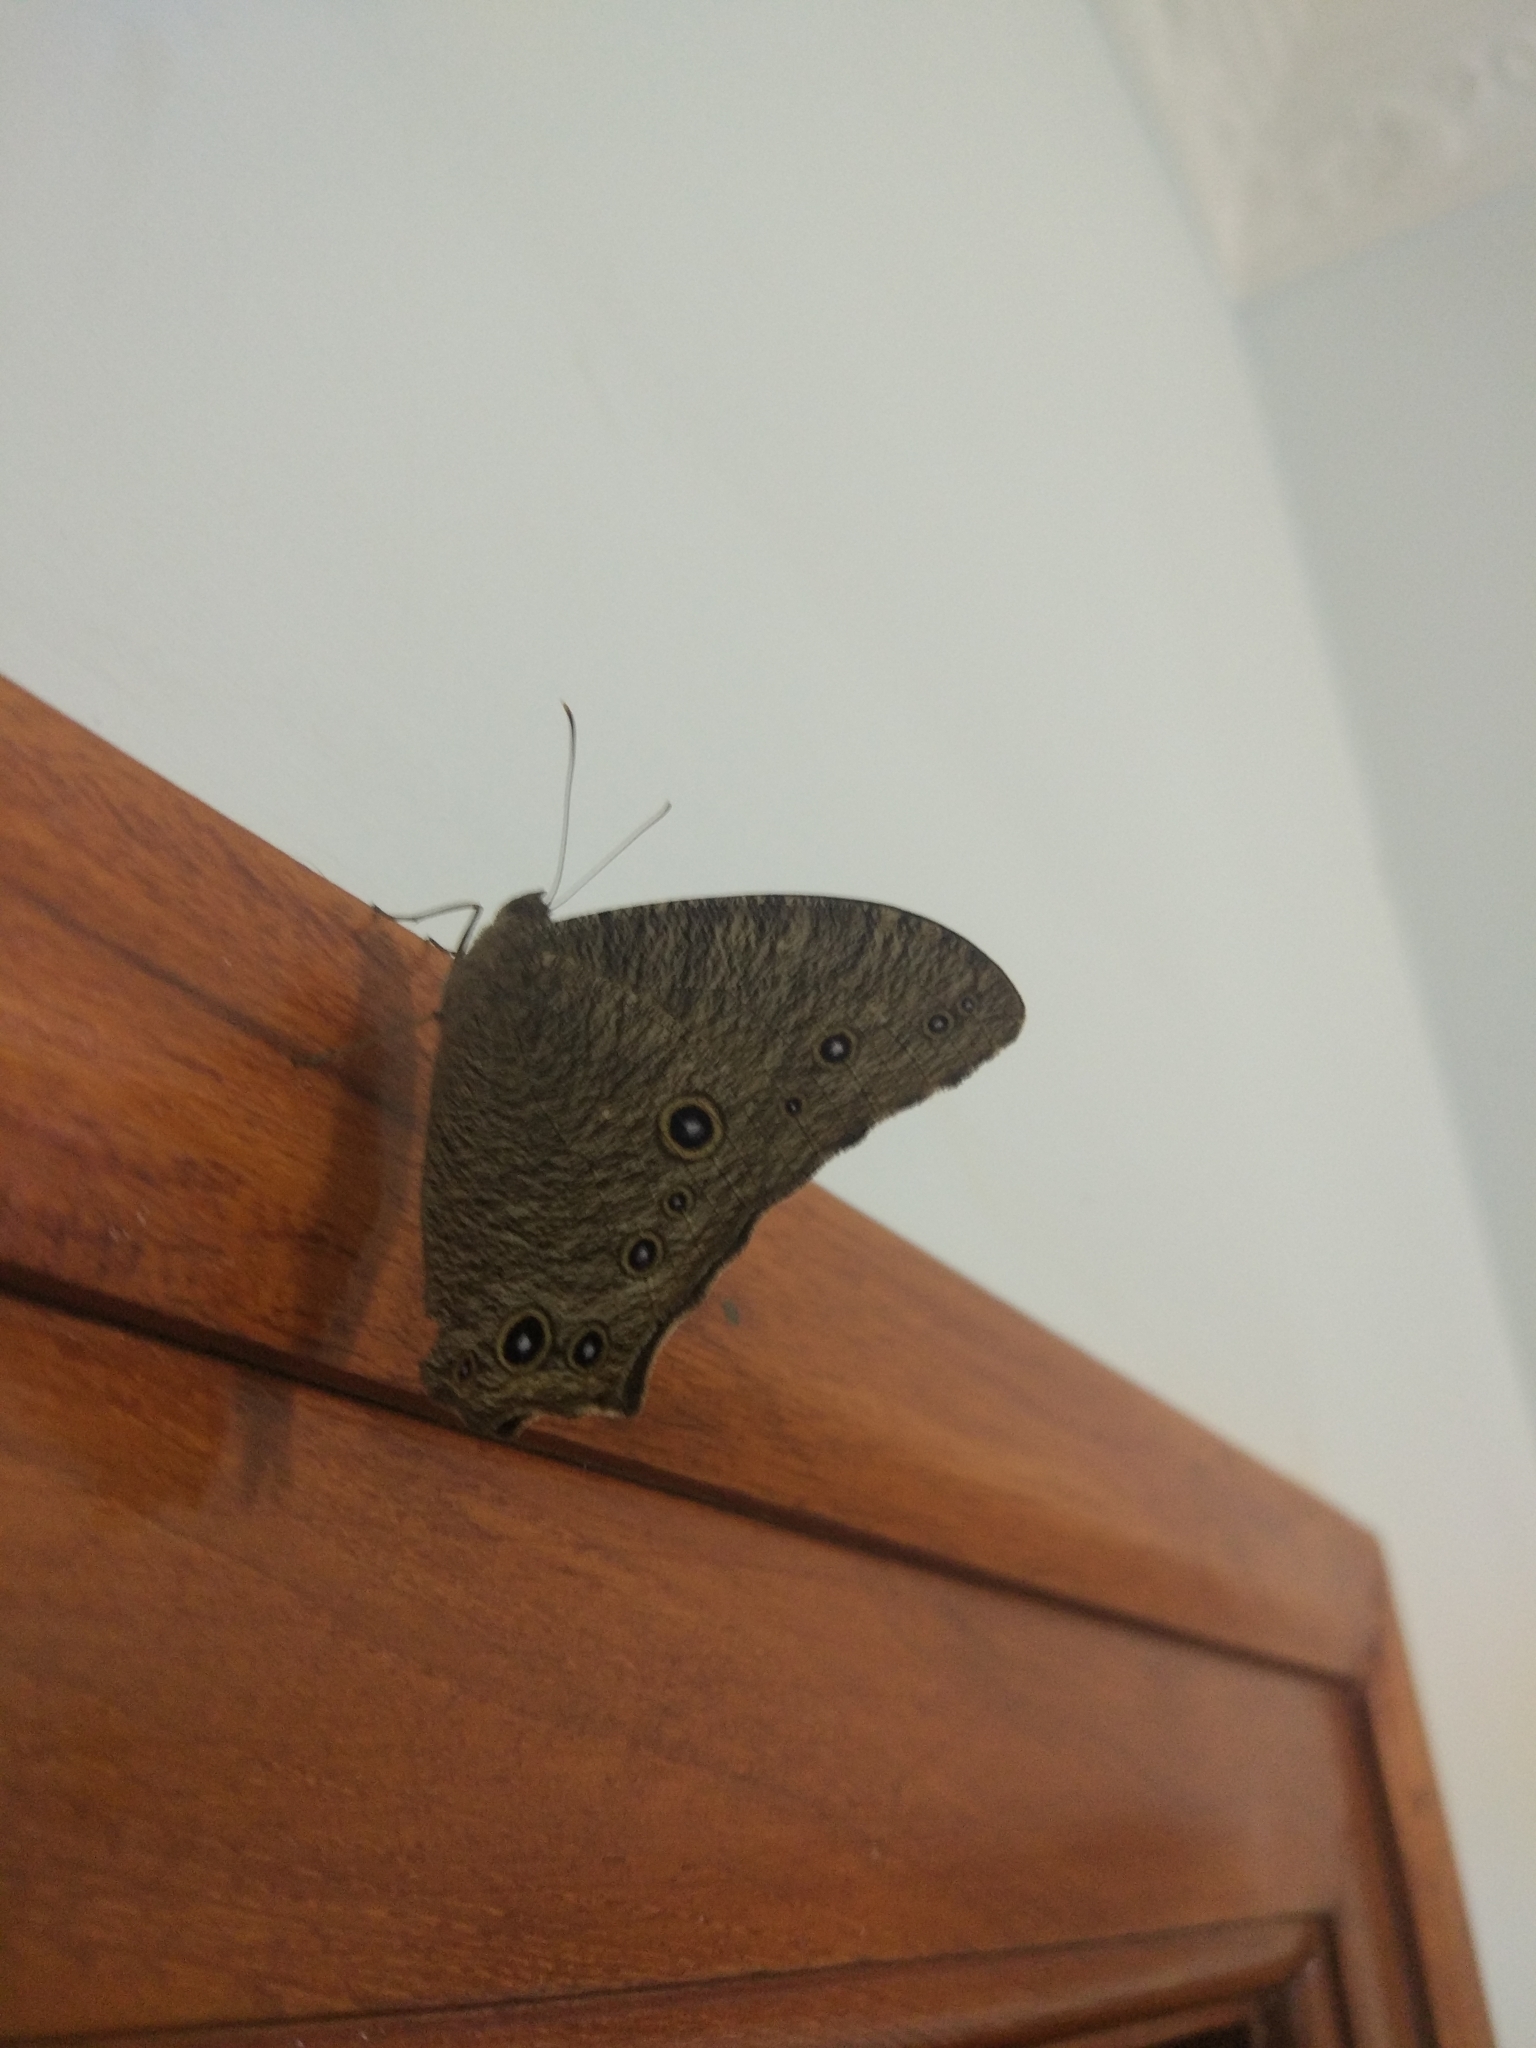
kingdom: Animalia
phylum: Arthropoda
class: Insecta
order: Lepidoptera
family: Nymphalidae
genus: Melanitis
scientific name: Melanitis leda
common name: Twilight brown
